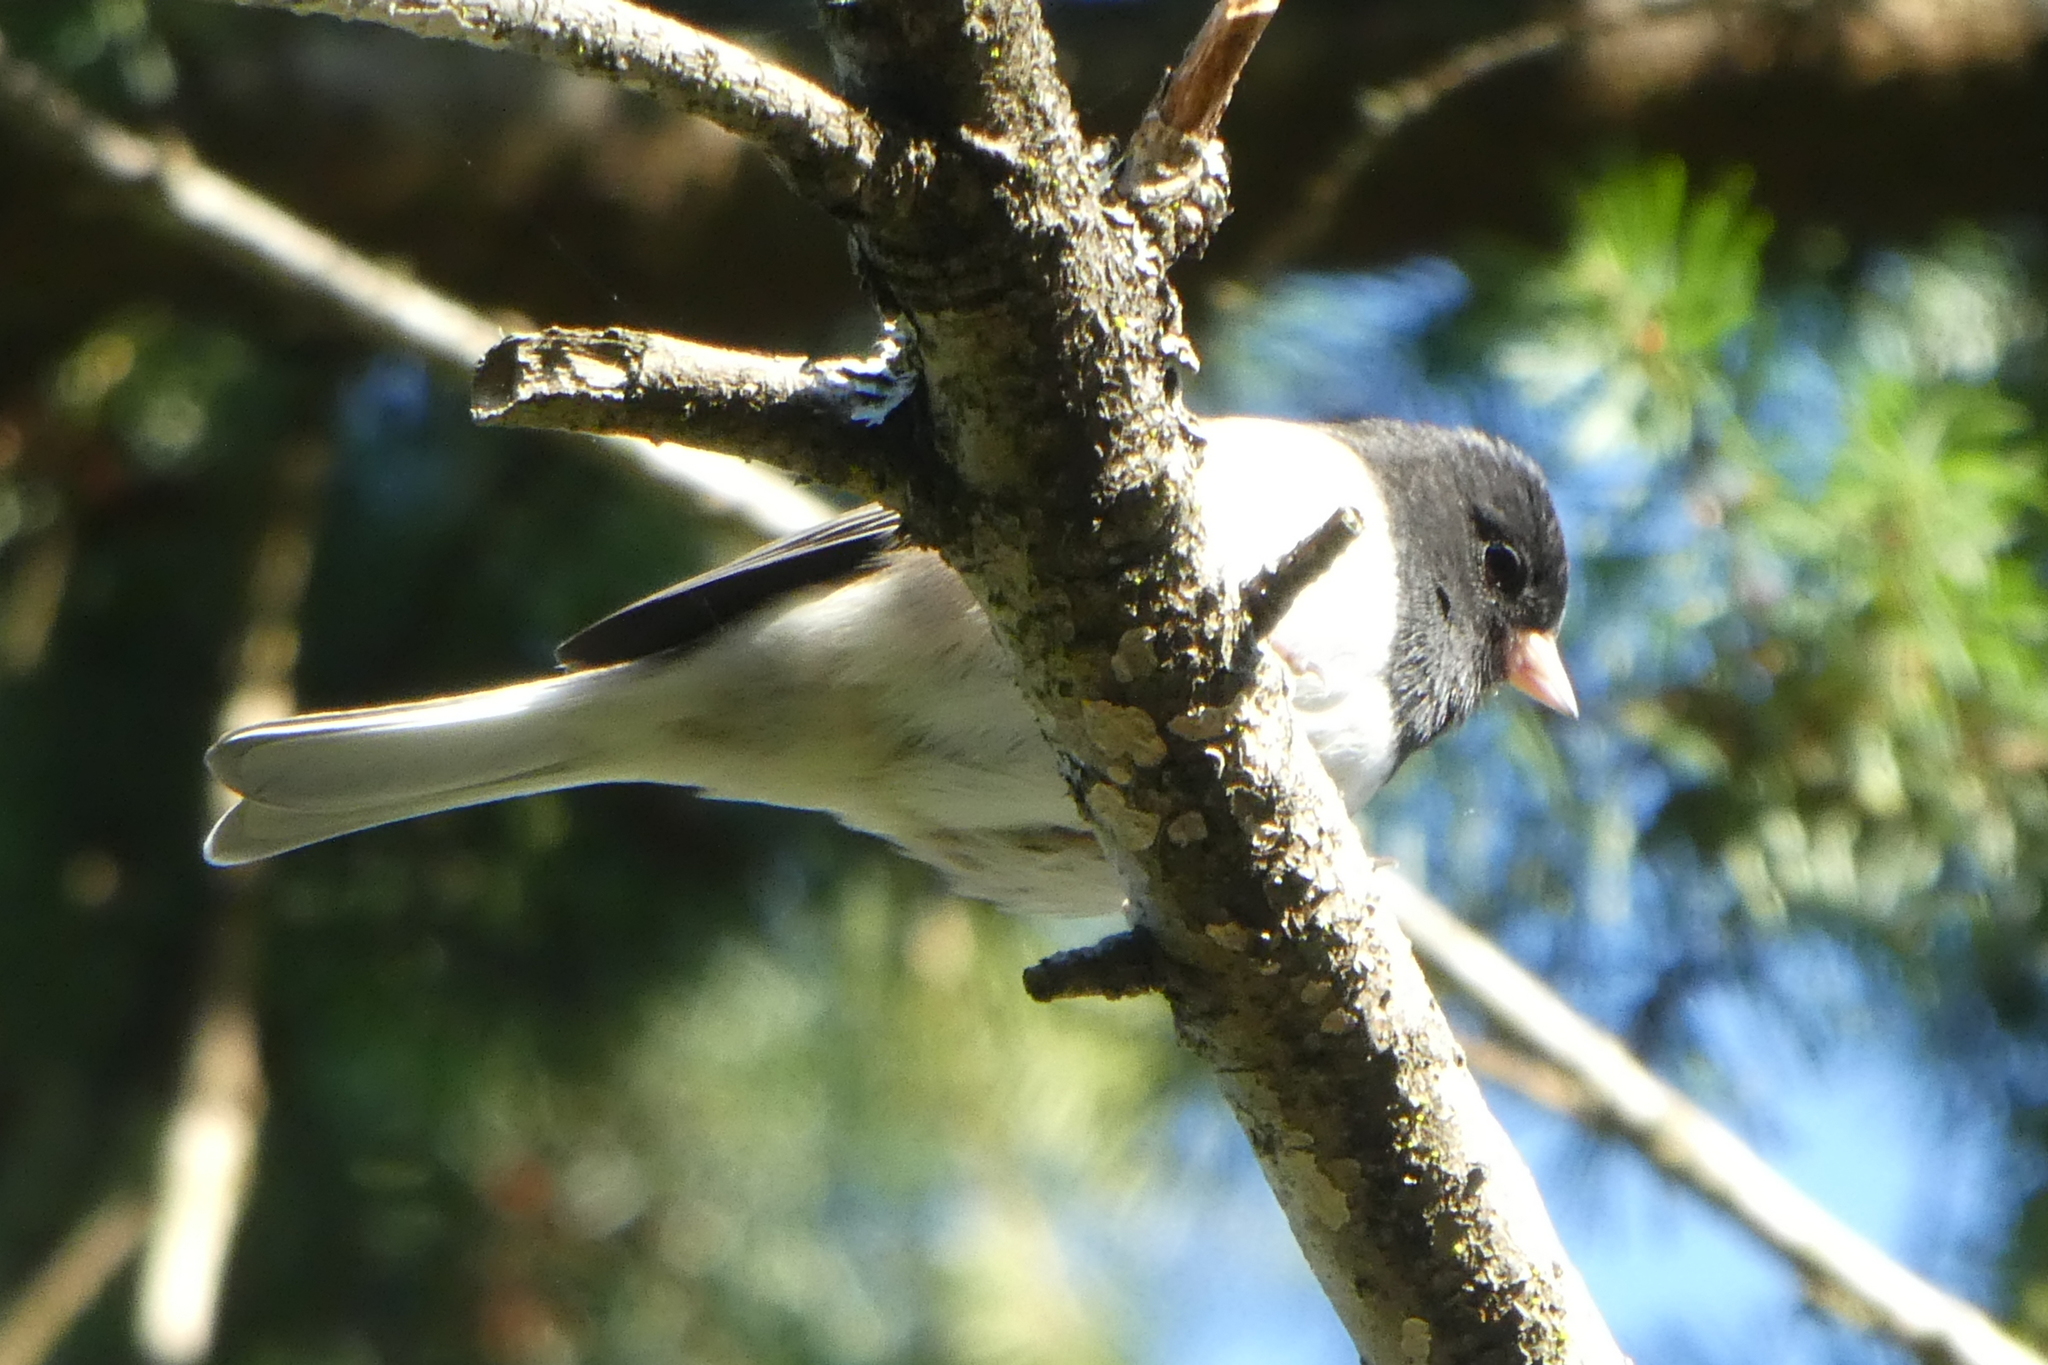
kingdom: Animalia
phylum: Chordata
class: Aves
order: Passeriformes
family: Passerellidae
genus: Junco
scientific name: Junco hyemalis
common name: Dark-eyed junco
